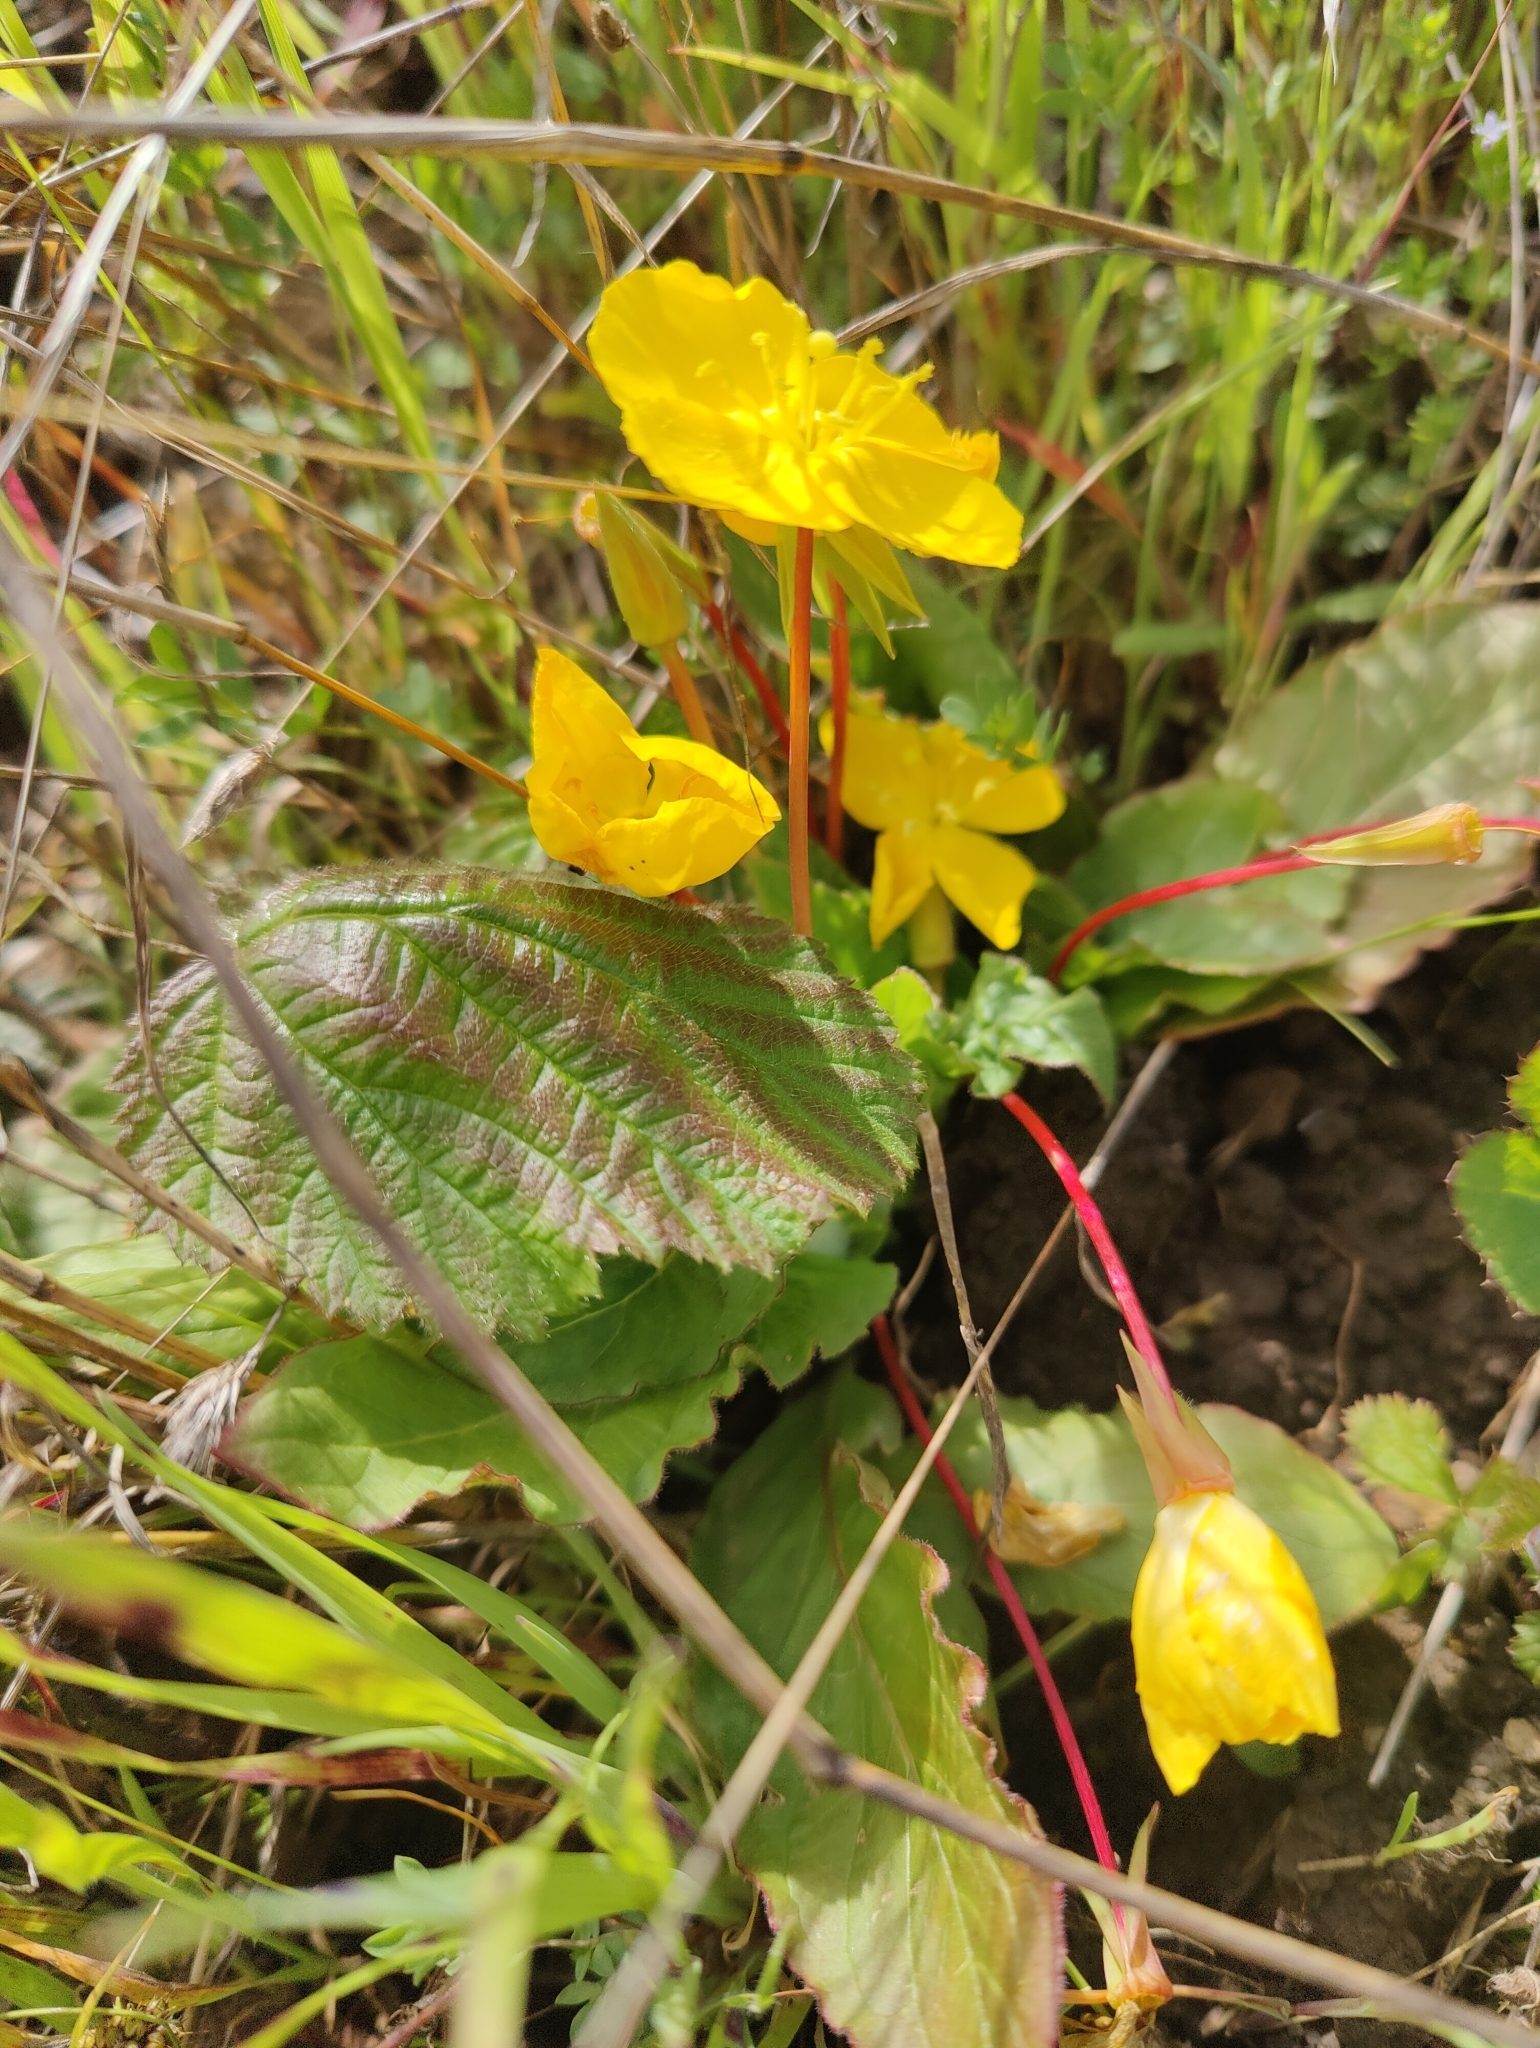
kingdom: Plantae
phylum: Tracheophyta
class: Magnoliopsida
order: Myrtales
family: Onagraceae
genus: Taraxia
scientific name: Taraxia ovata
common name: Goldeneggs
